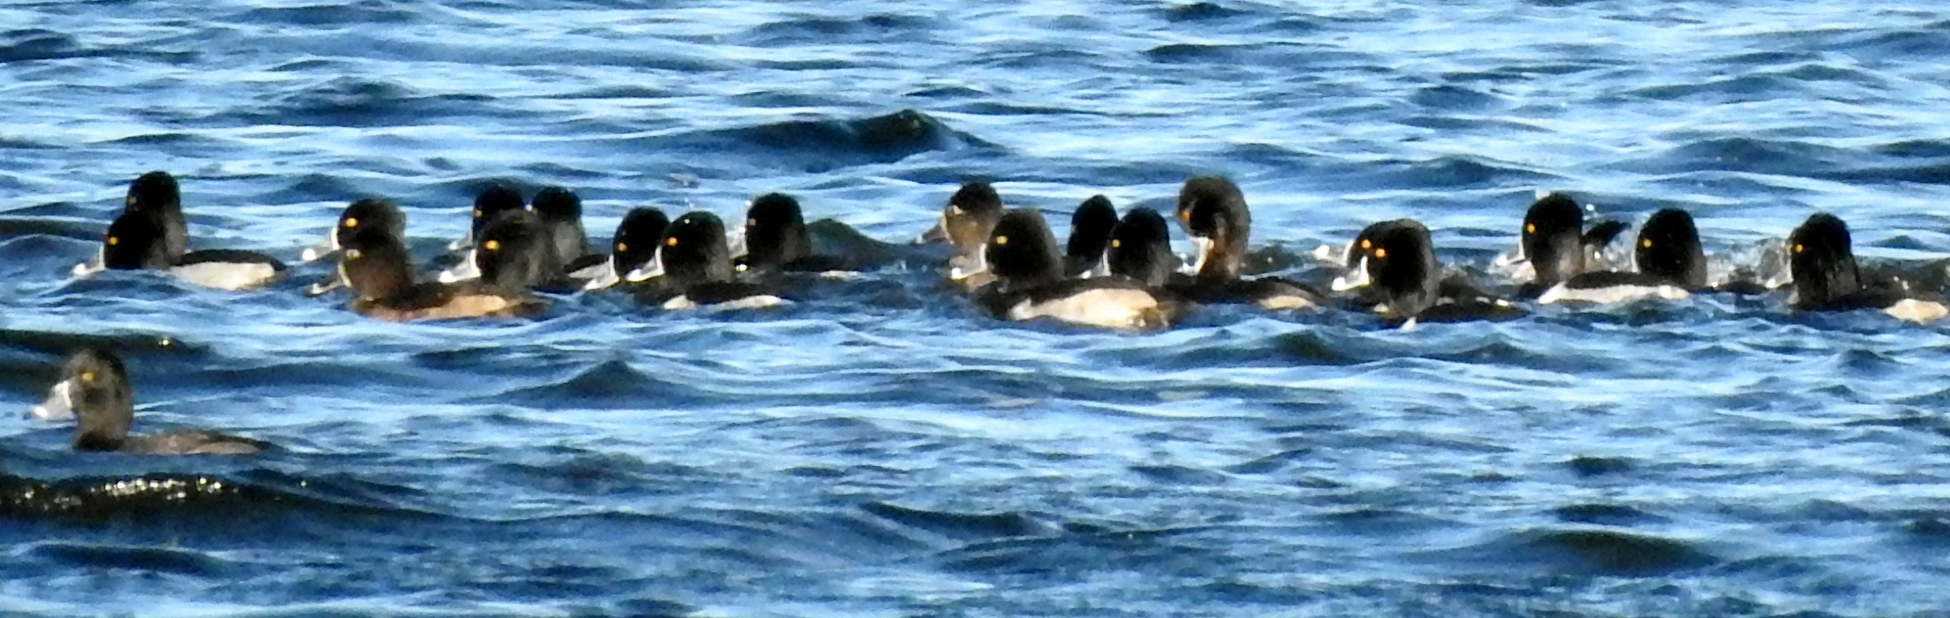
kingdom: Animalia
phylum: Chordata
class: Aves
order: Anseriformes
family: Anatidae
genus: Aythya
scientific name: Aythya collaris
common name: Ring-necked duck
